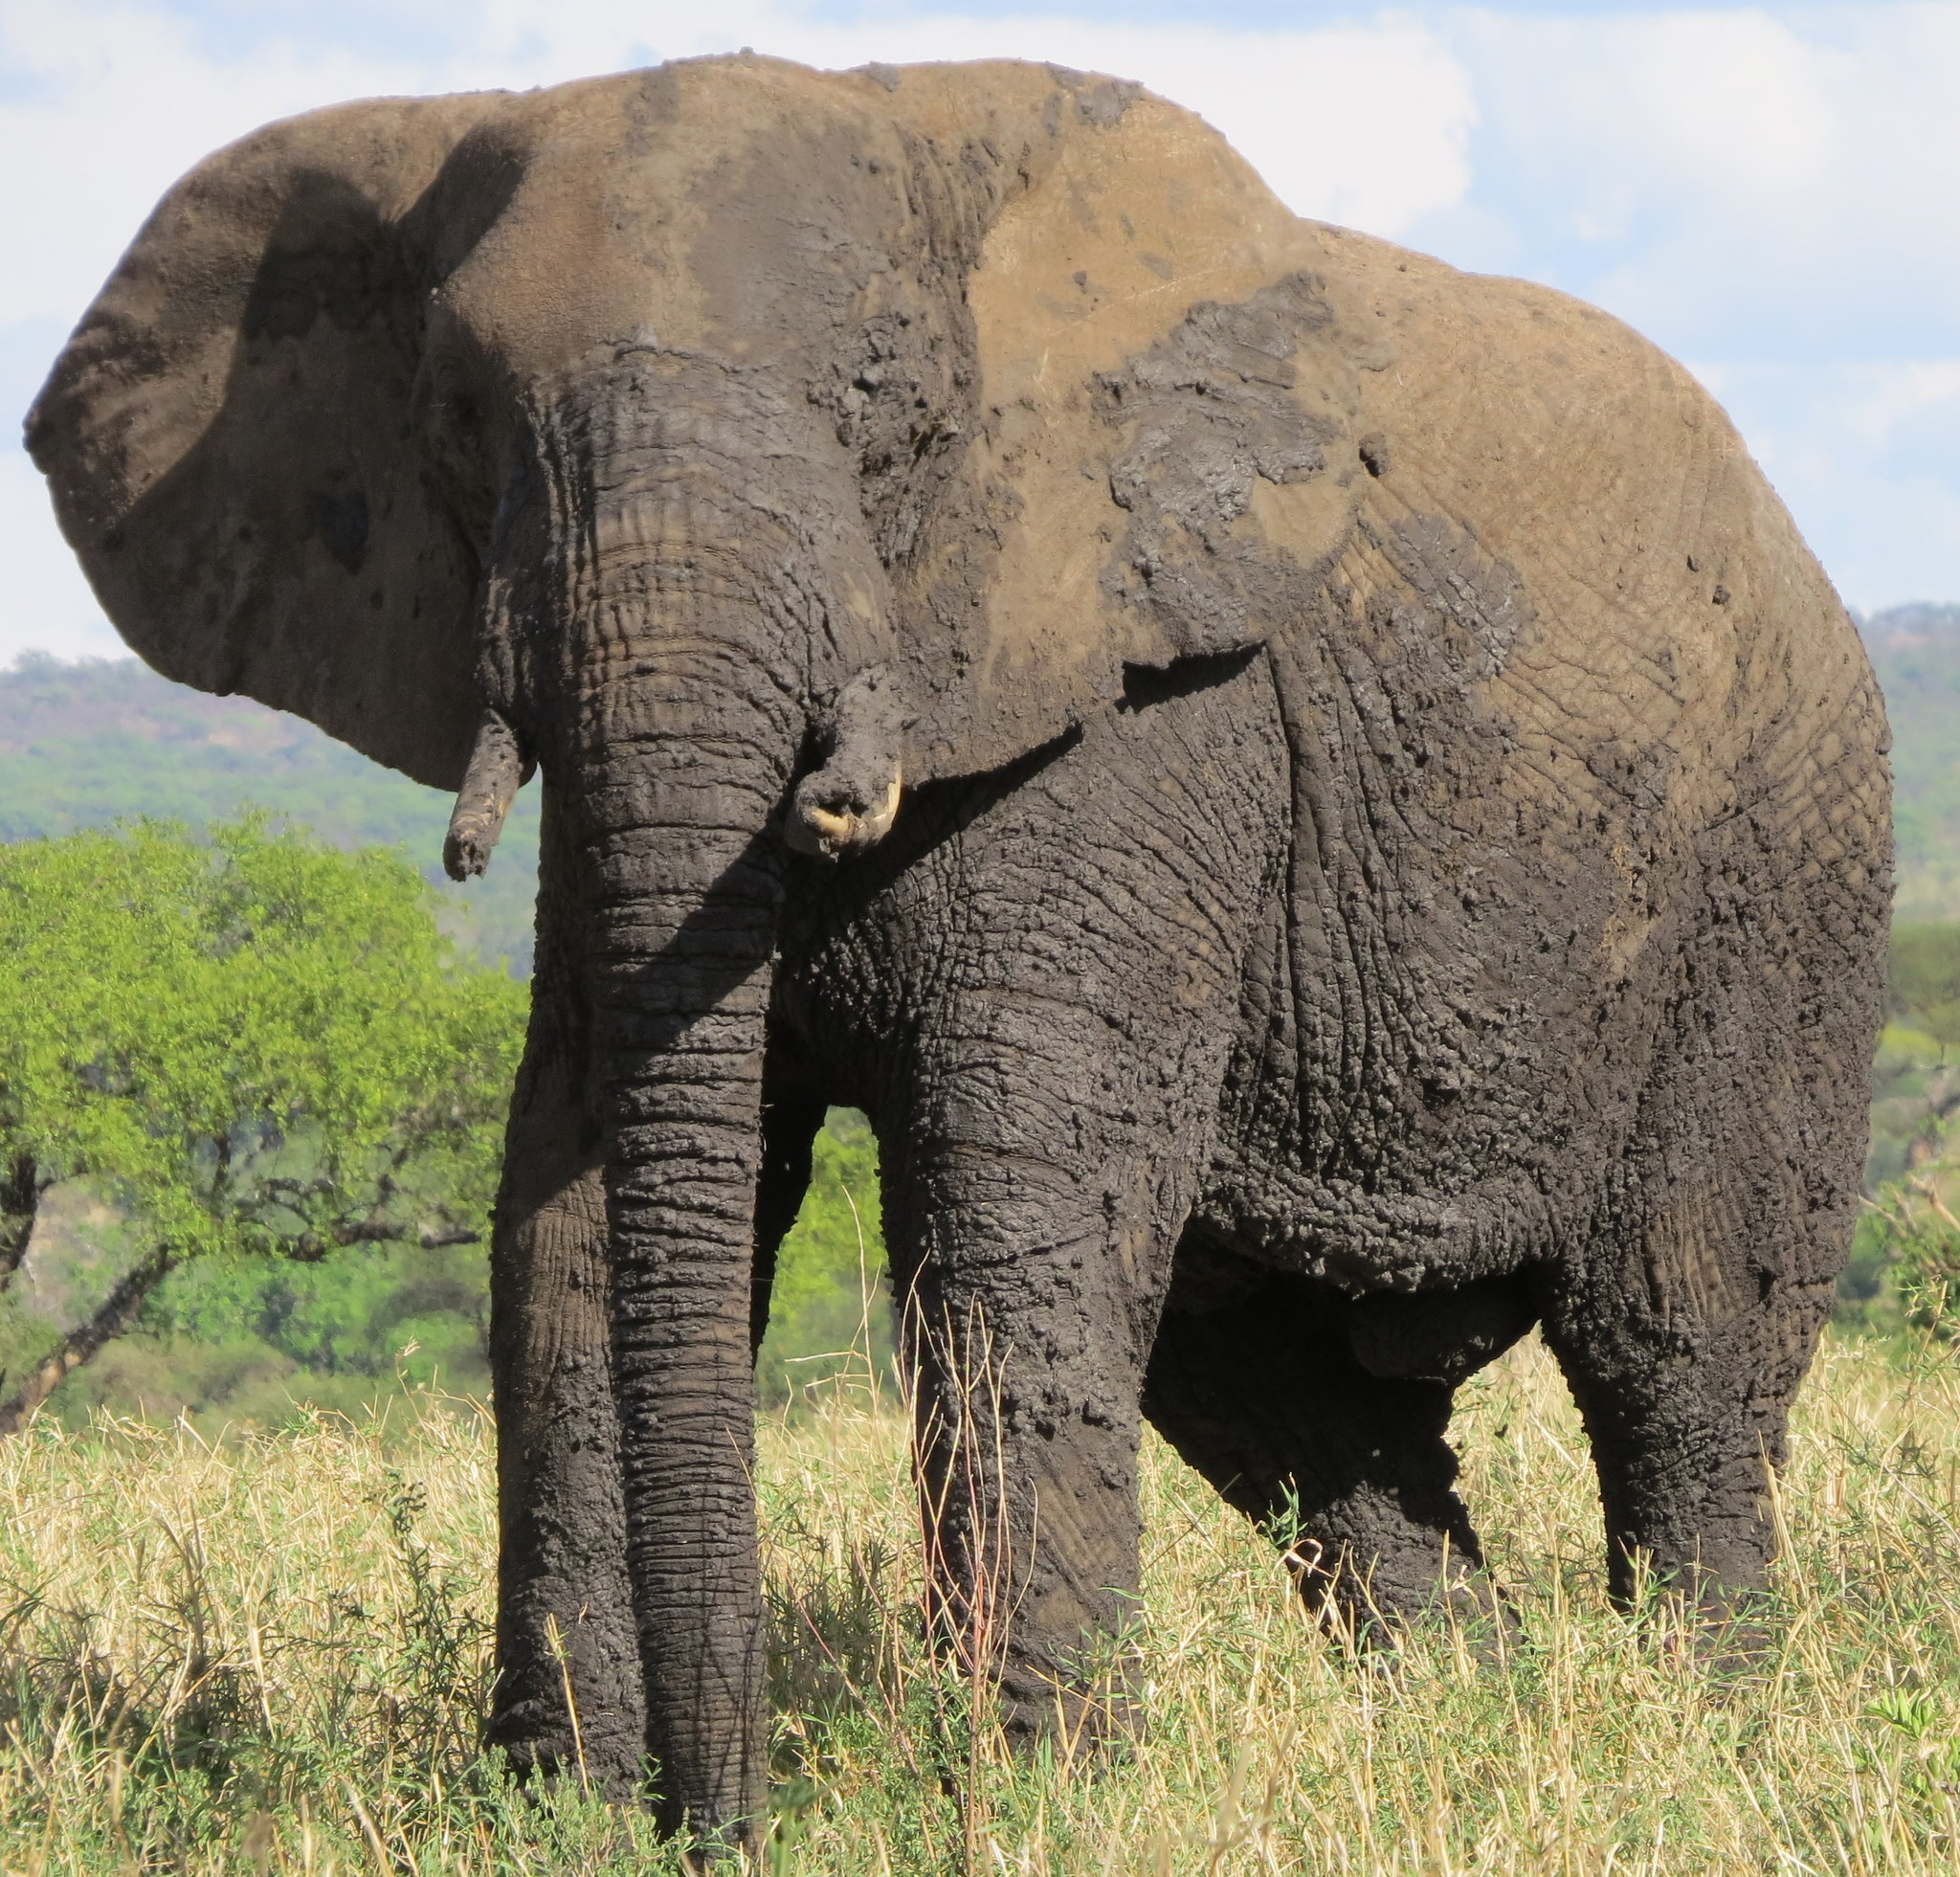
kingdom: Animalia
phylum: Chordata
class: Mammalia
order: Proboscidea
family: Elephantidae
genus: Loxodonta
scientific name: Loxodonta africana
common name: African elephant
